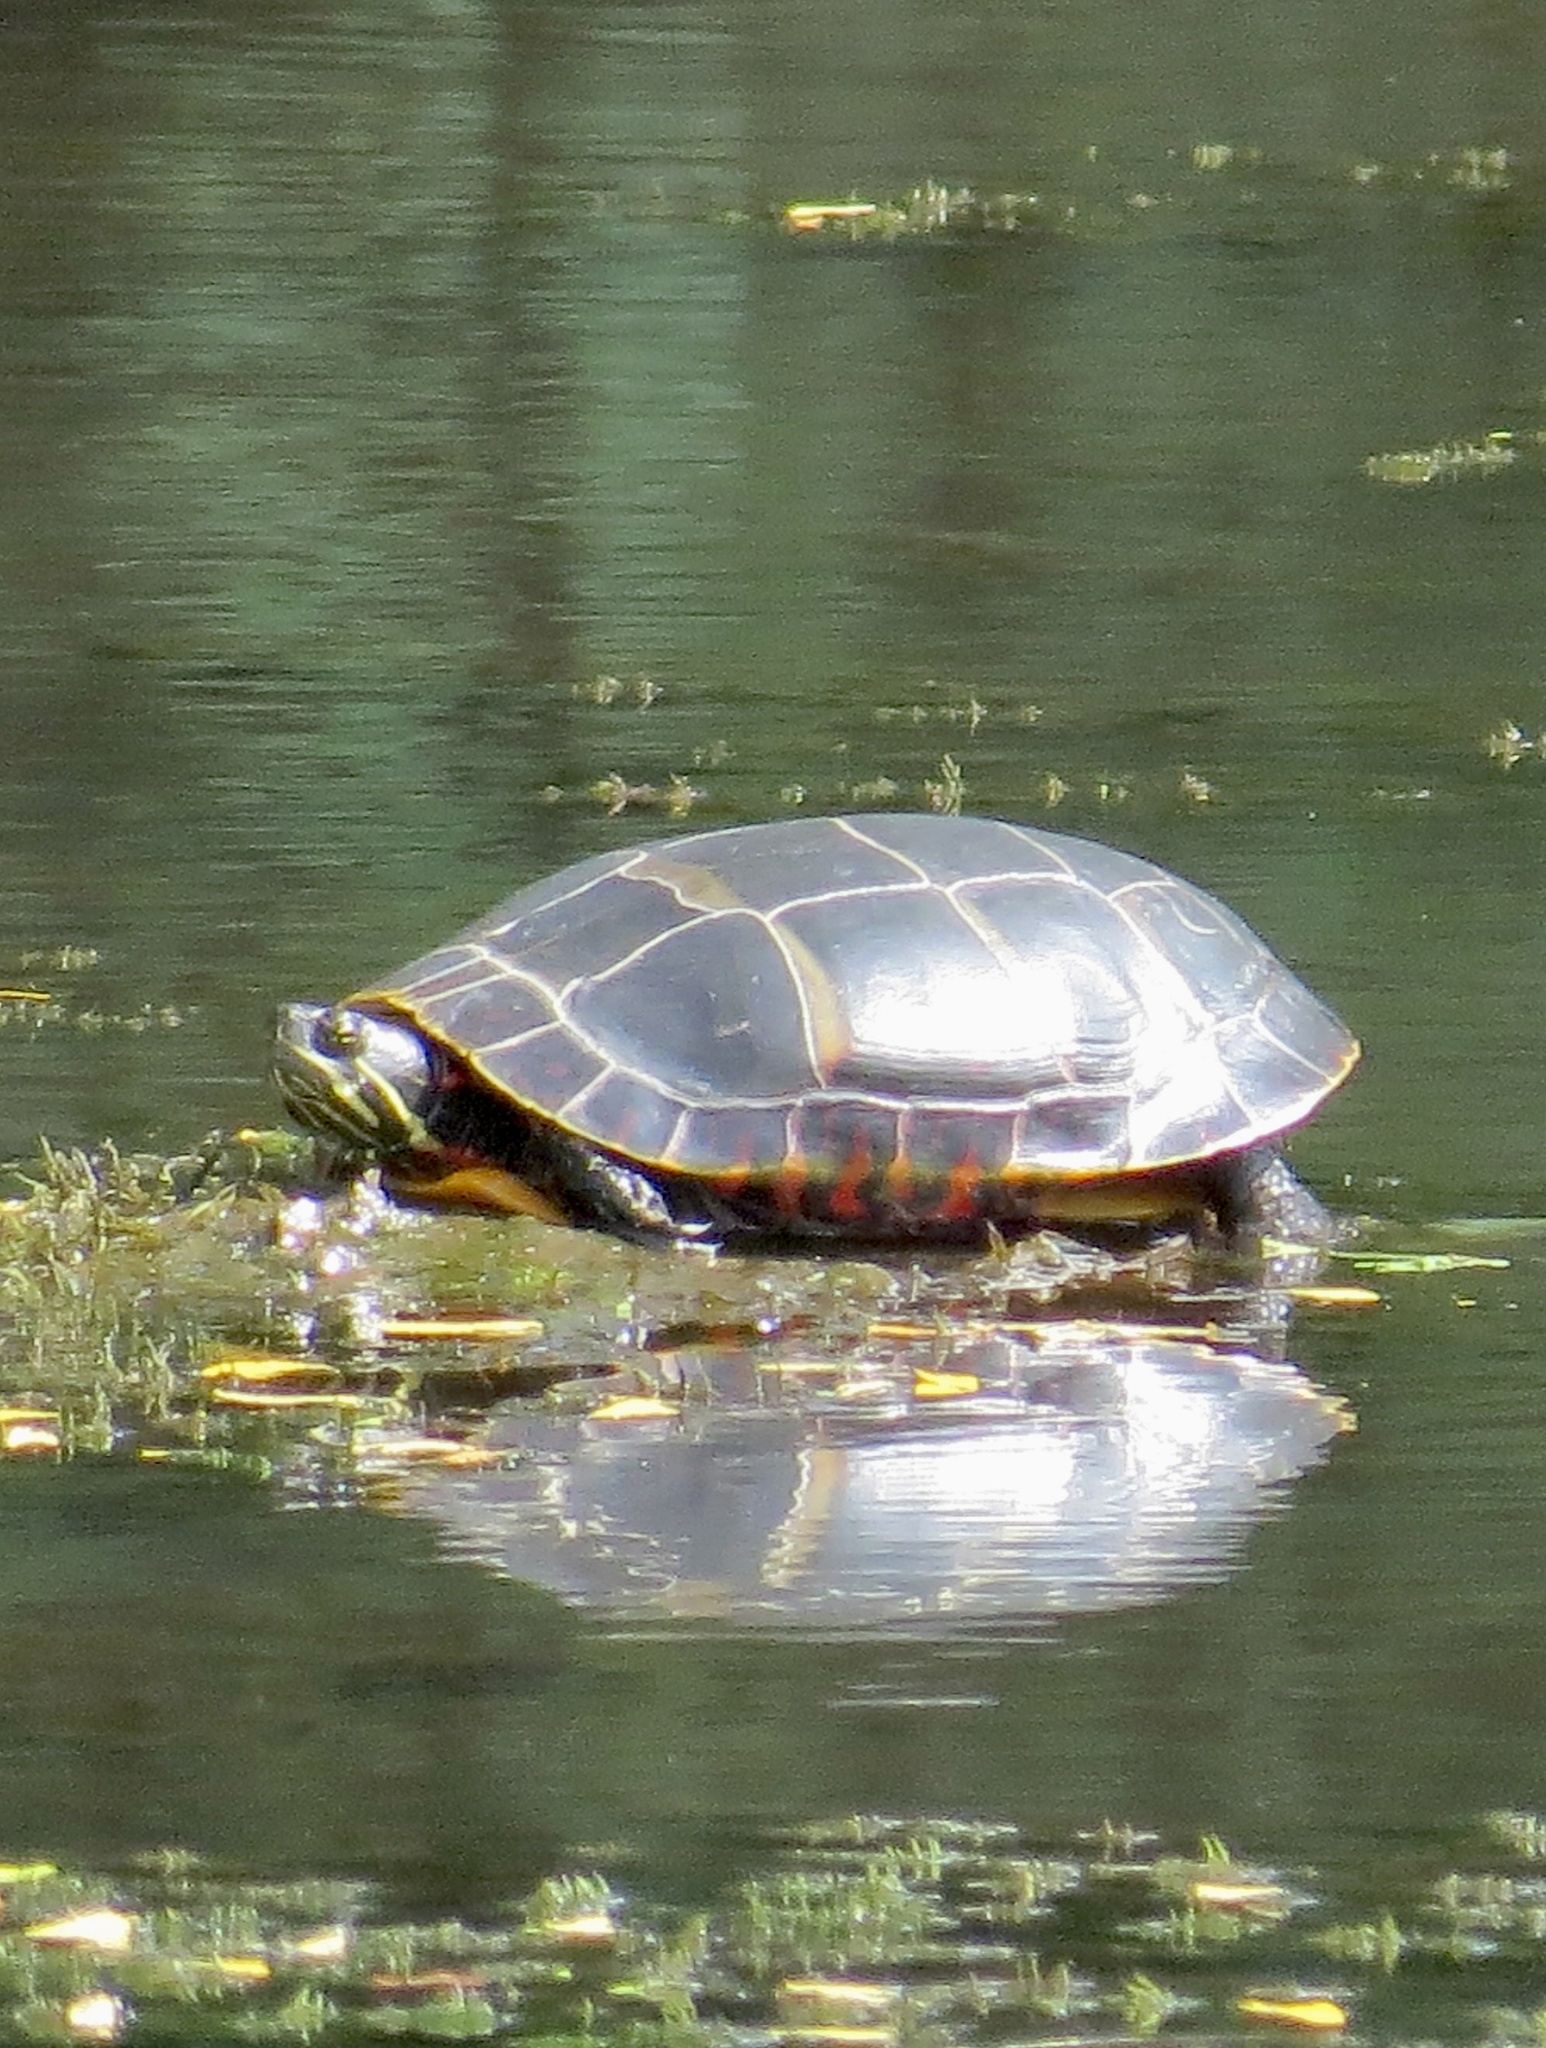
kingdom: Animalia
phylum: Chordata
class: Testudines
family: Emydidae
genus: Chrysemys
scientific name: Chrysemys picta
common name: Painted turtle
